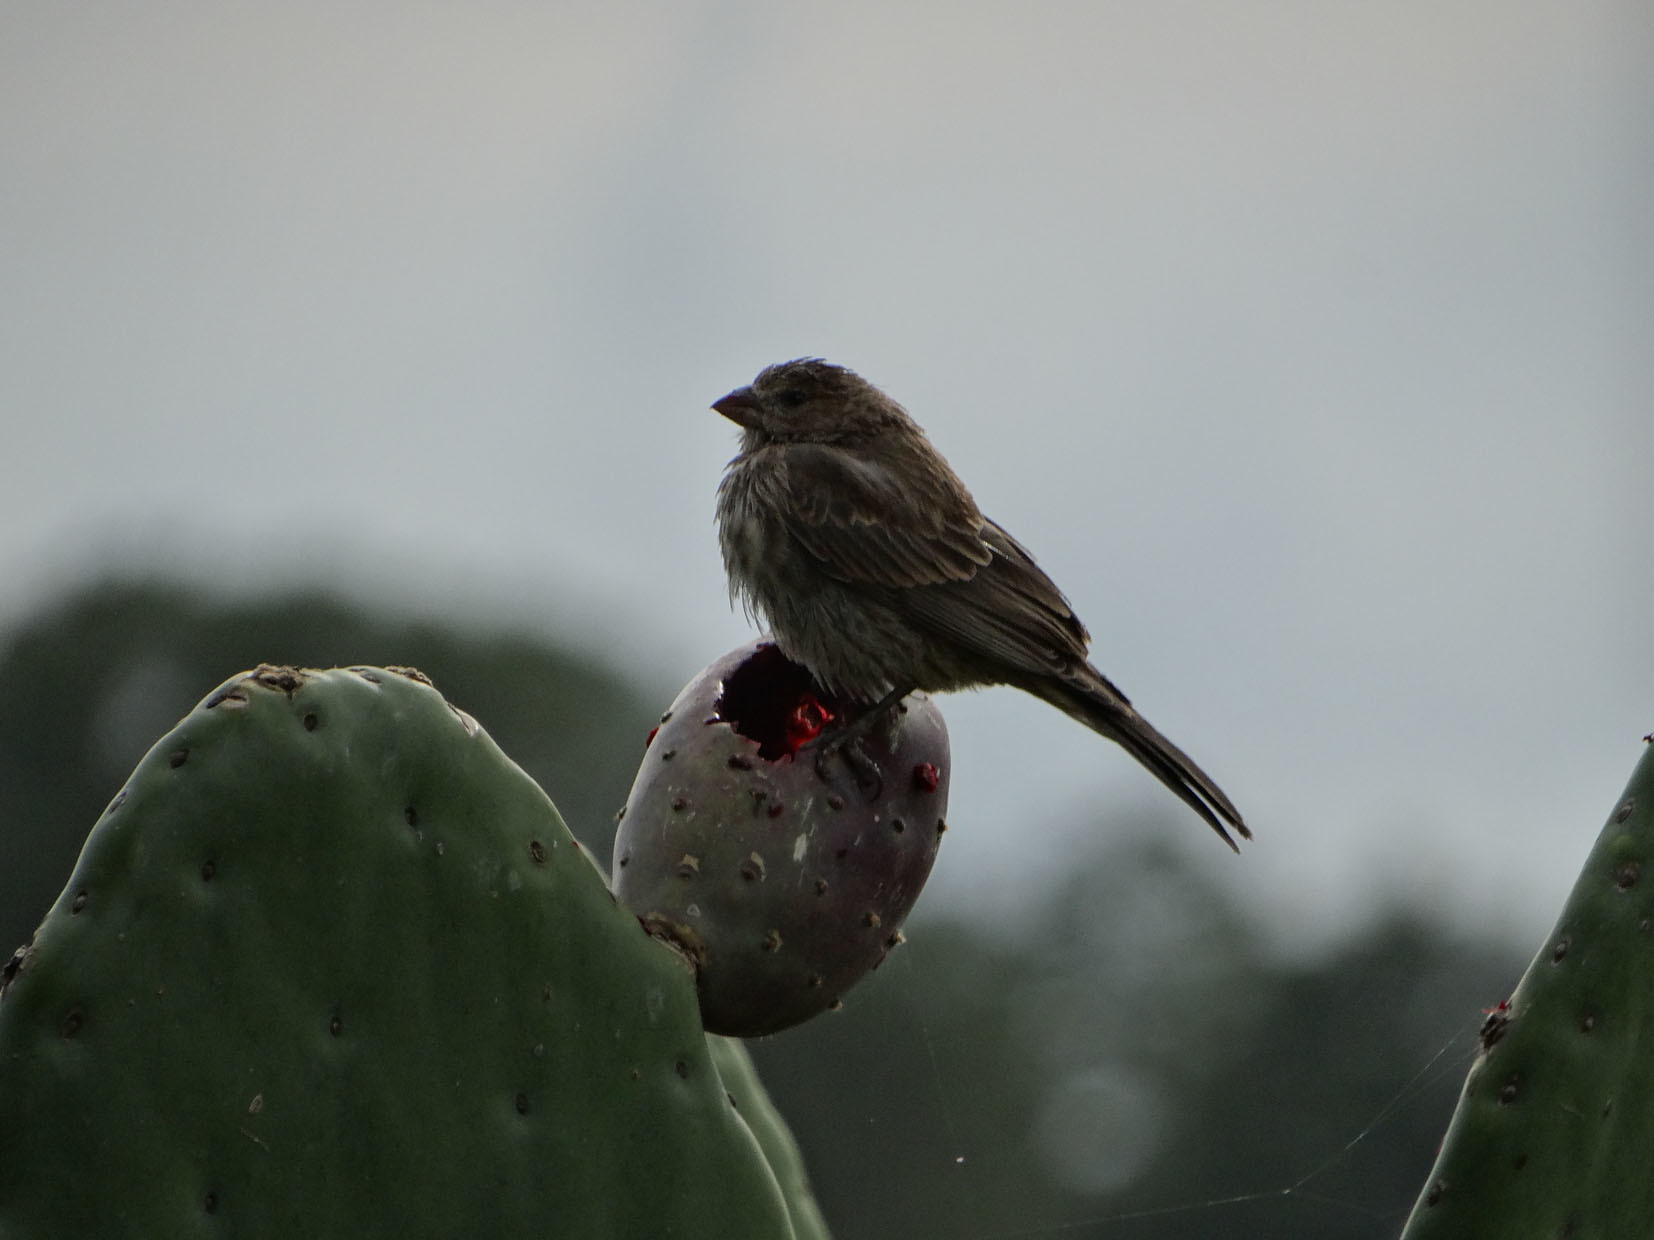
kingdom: Animalia
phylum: Chordata
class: Aves
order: Passeriformes
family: Fringillidae
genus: Haemorhous
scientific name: Haemorhous mexicanus
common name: House finch
